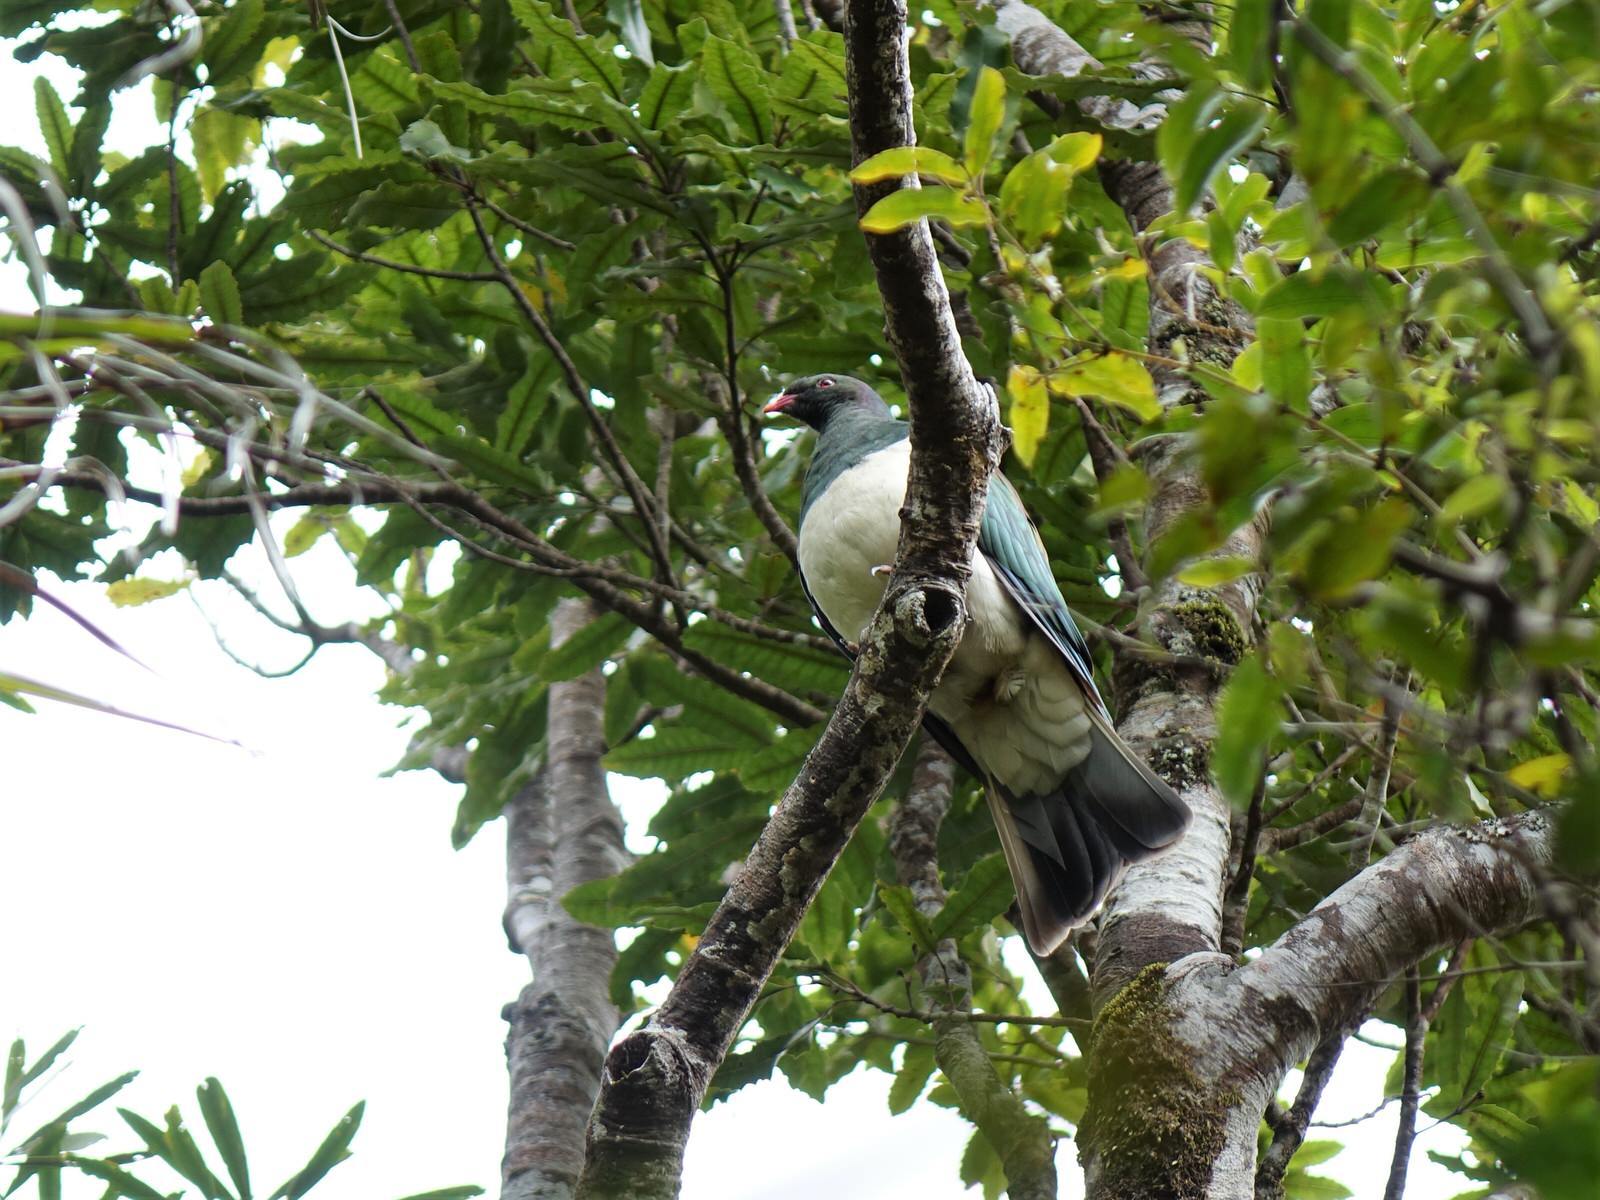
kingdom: Animalia
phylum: Chordata
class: Aves
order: Columbiformes
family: Columbidae
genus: Hemiphaga
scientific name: Hemiphaga novaeseelandiae
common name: New zealand pigeon
